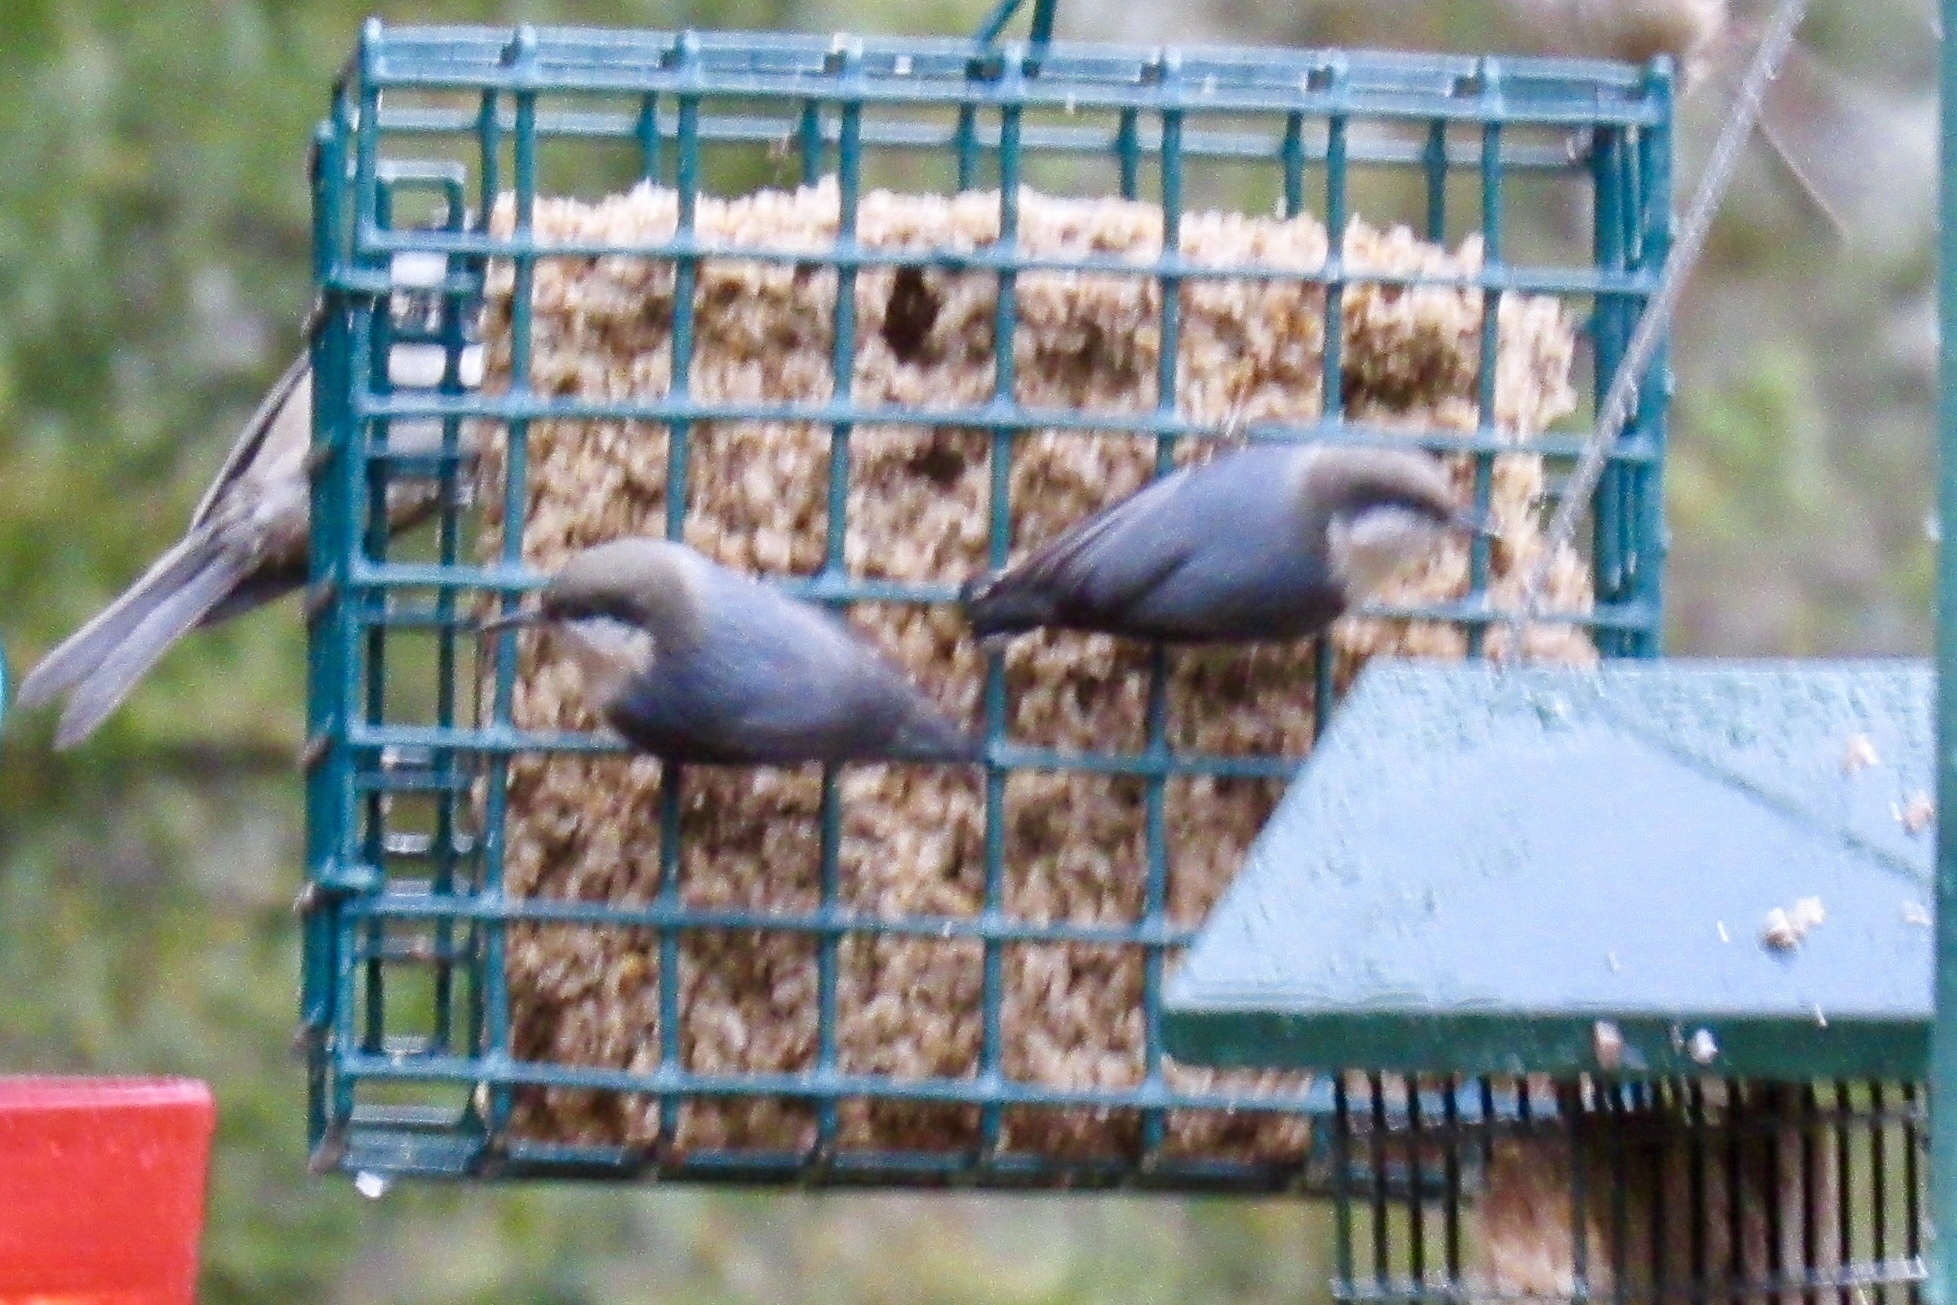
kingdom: Animalia
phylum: Chordata
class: Aves
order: Passeriformes
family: Sittidae
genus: Sitta
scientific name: Sitta pygmaea
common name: Pygmy nuthatch
